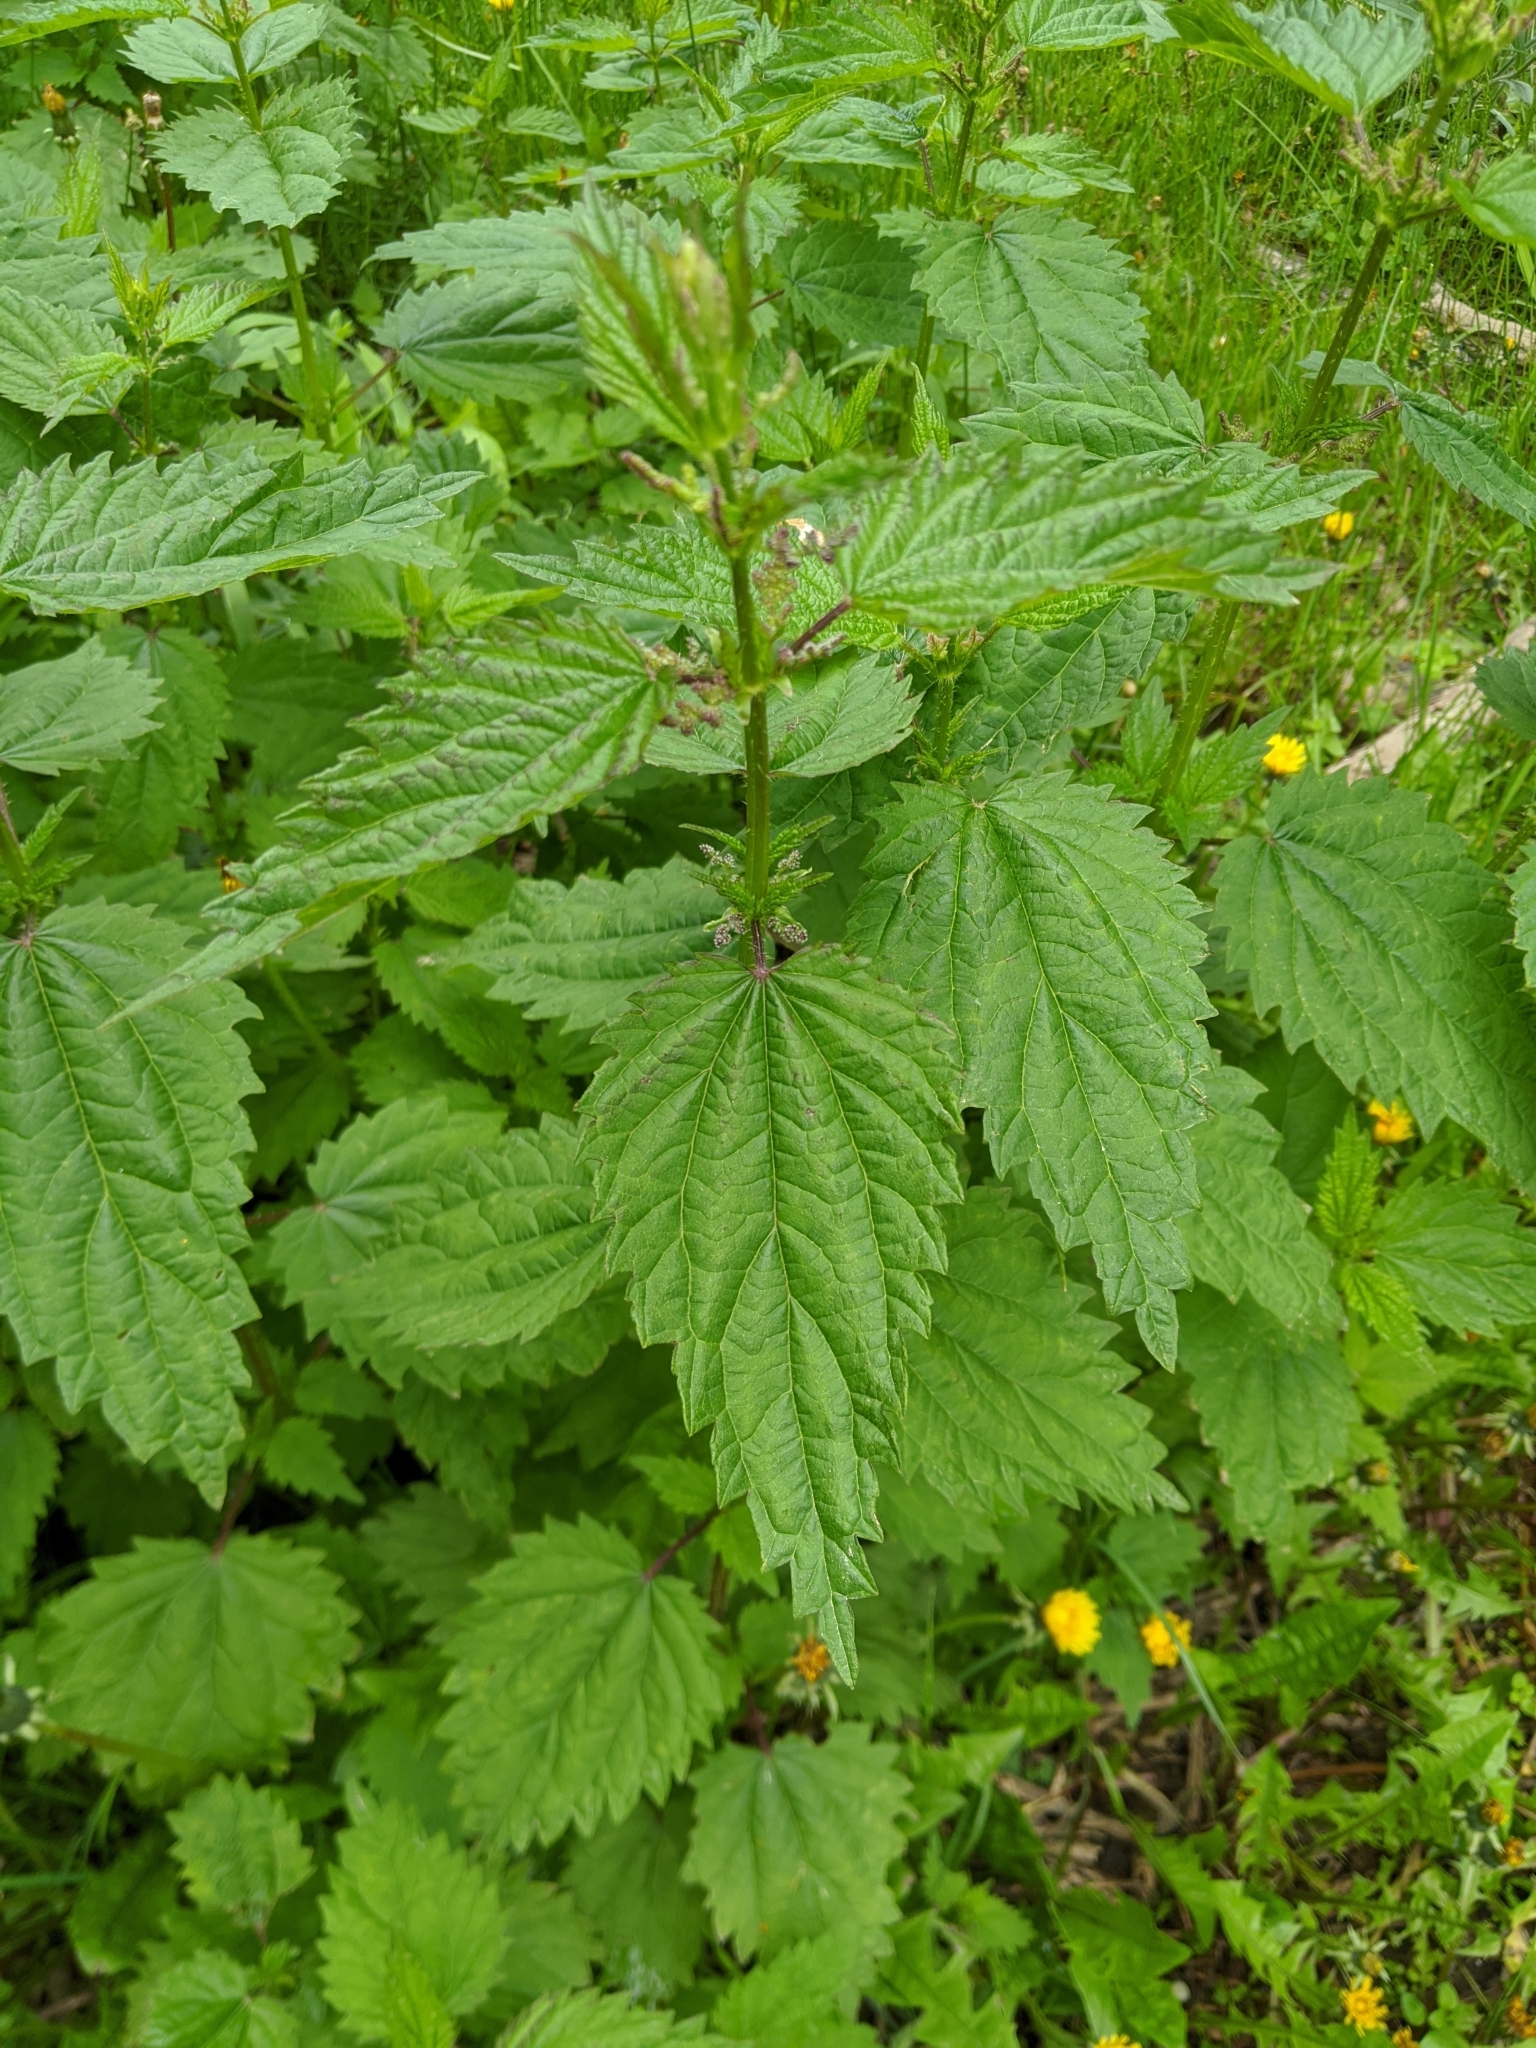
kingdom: Plantae
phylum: Tracheophyta
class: Magnoliopsida
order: Rosales
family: Urticaceae
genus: Urtica
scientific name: Urtica dioica
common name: Common nettle
